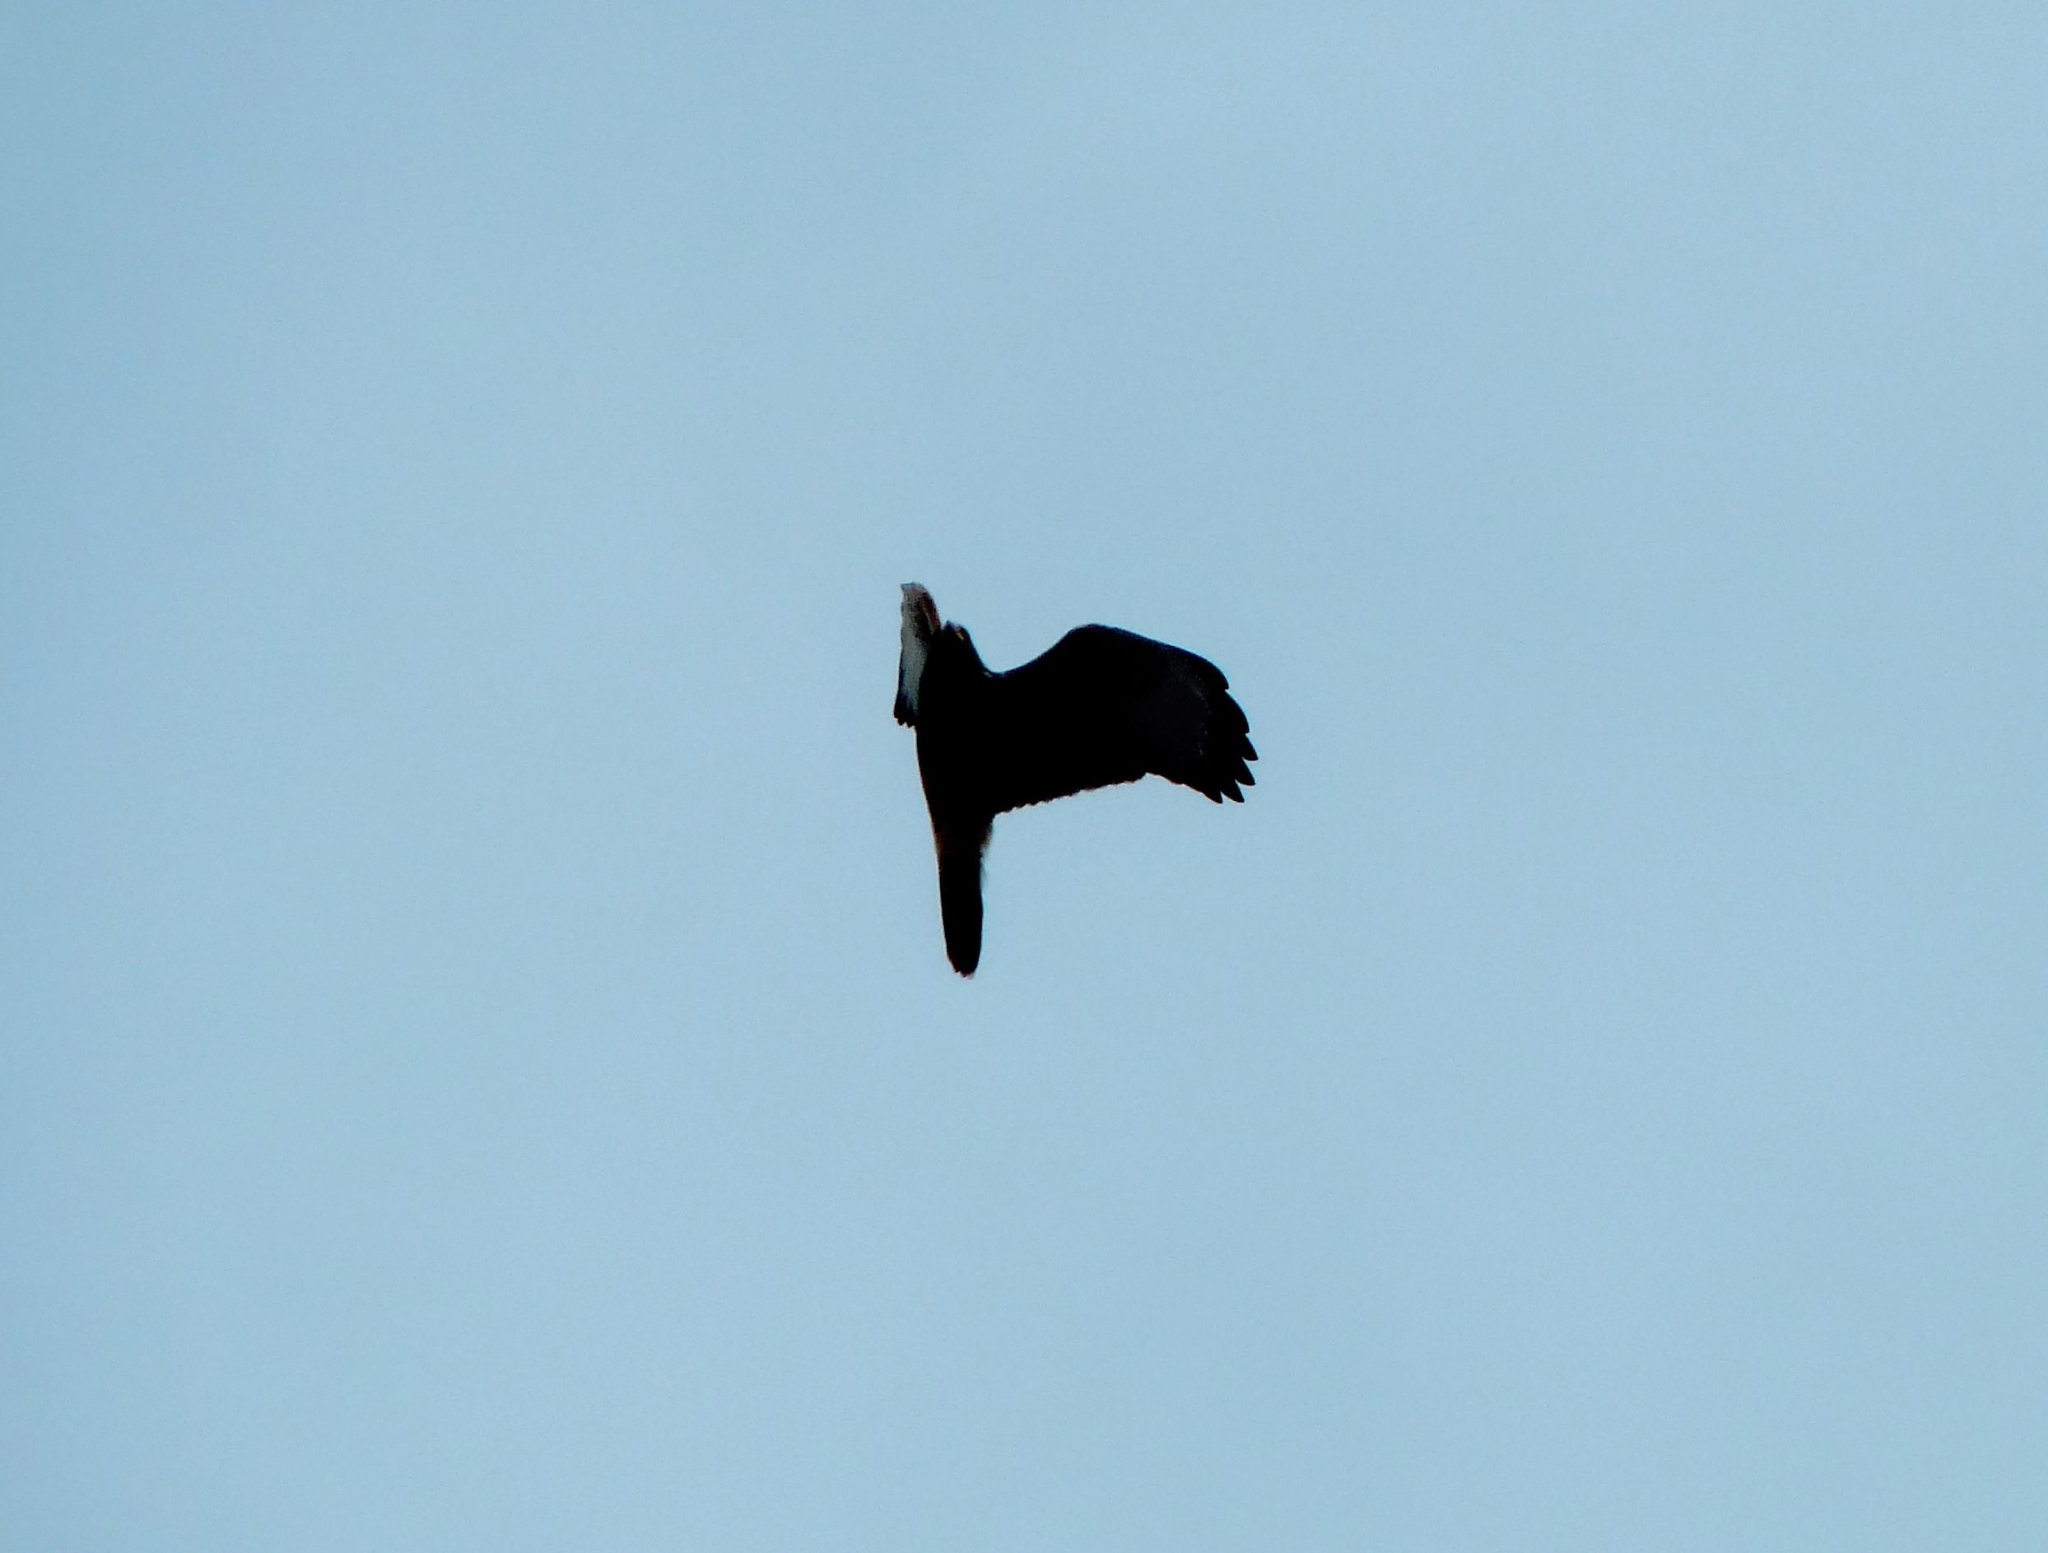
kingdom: Animalia
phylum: Chordata
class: Aves
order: Accipitriformes
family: Accipitridae
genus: Parabuteo
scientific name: Parabuteo unicinctus
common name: Harris's hawk
